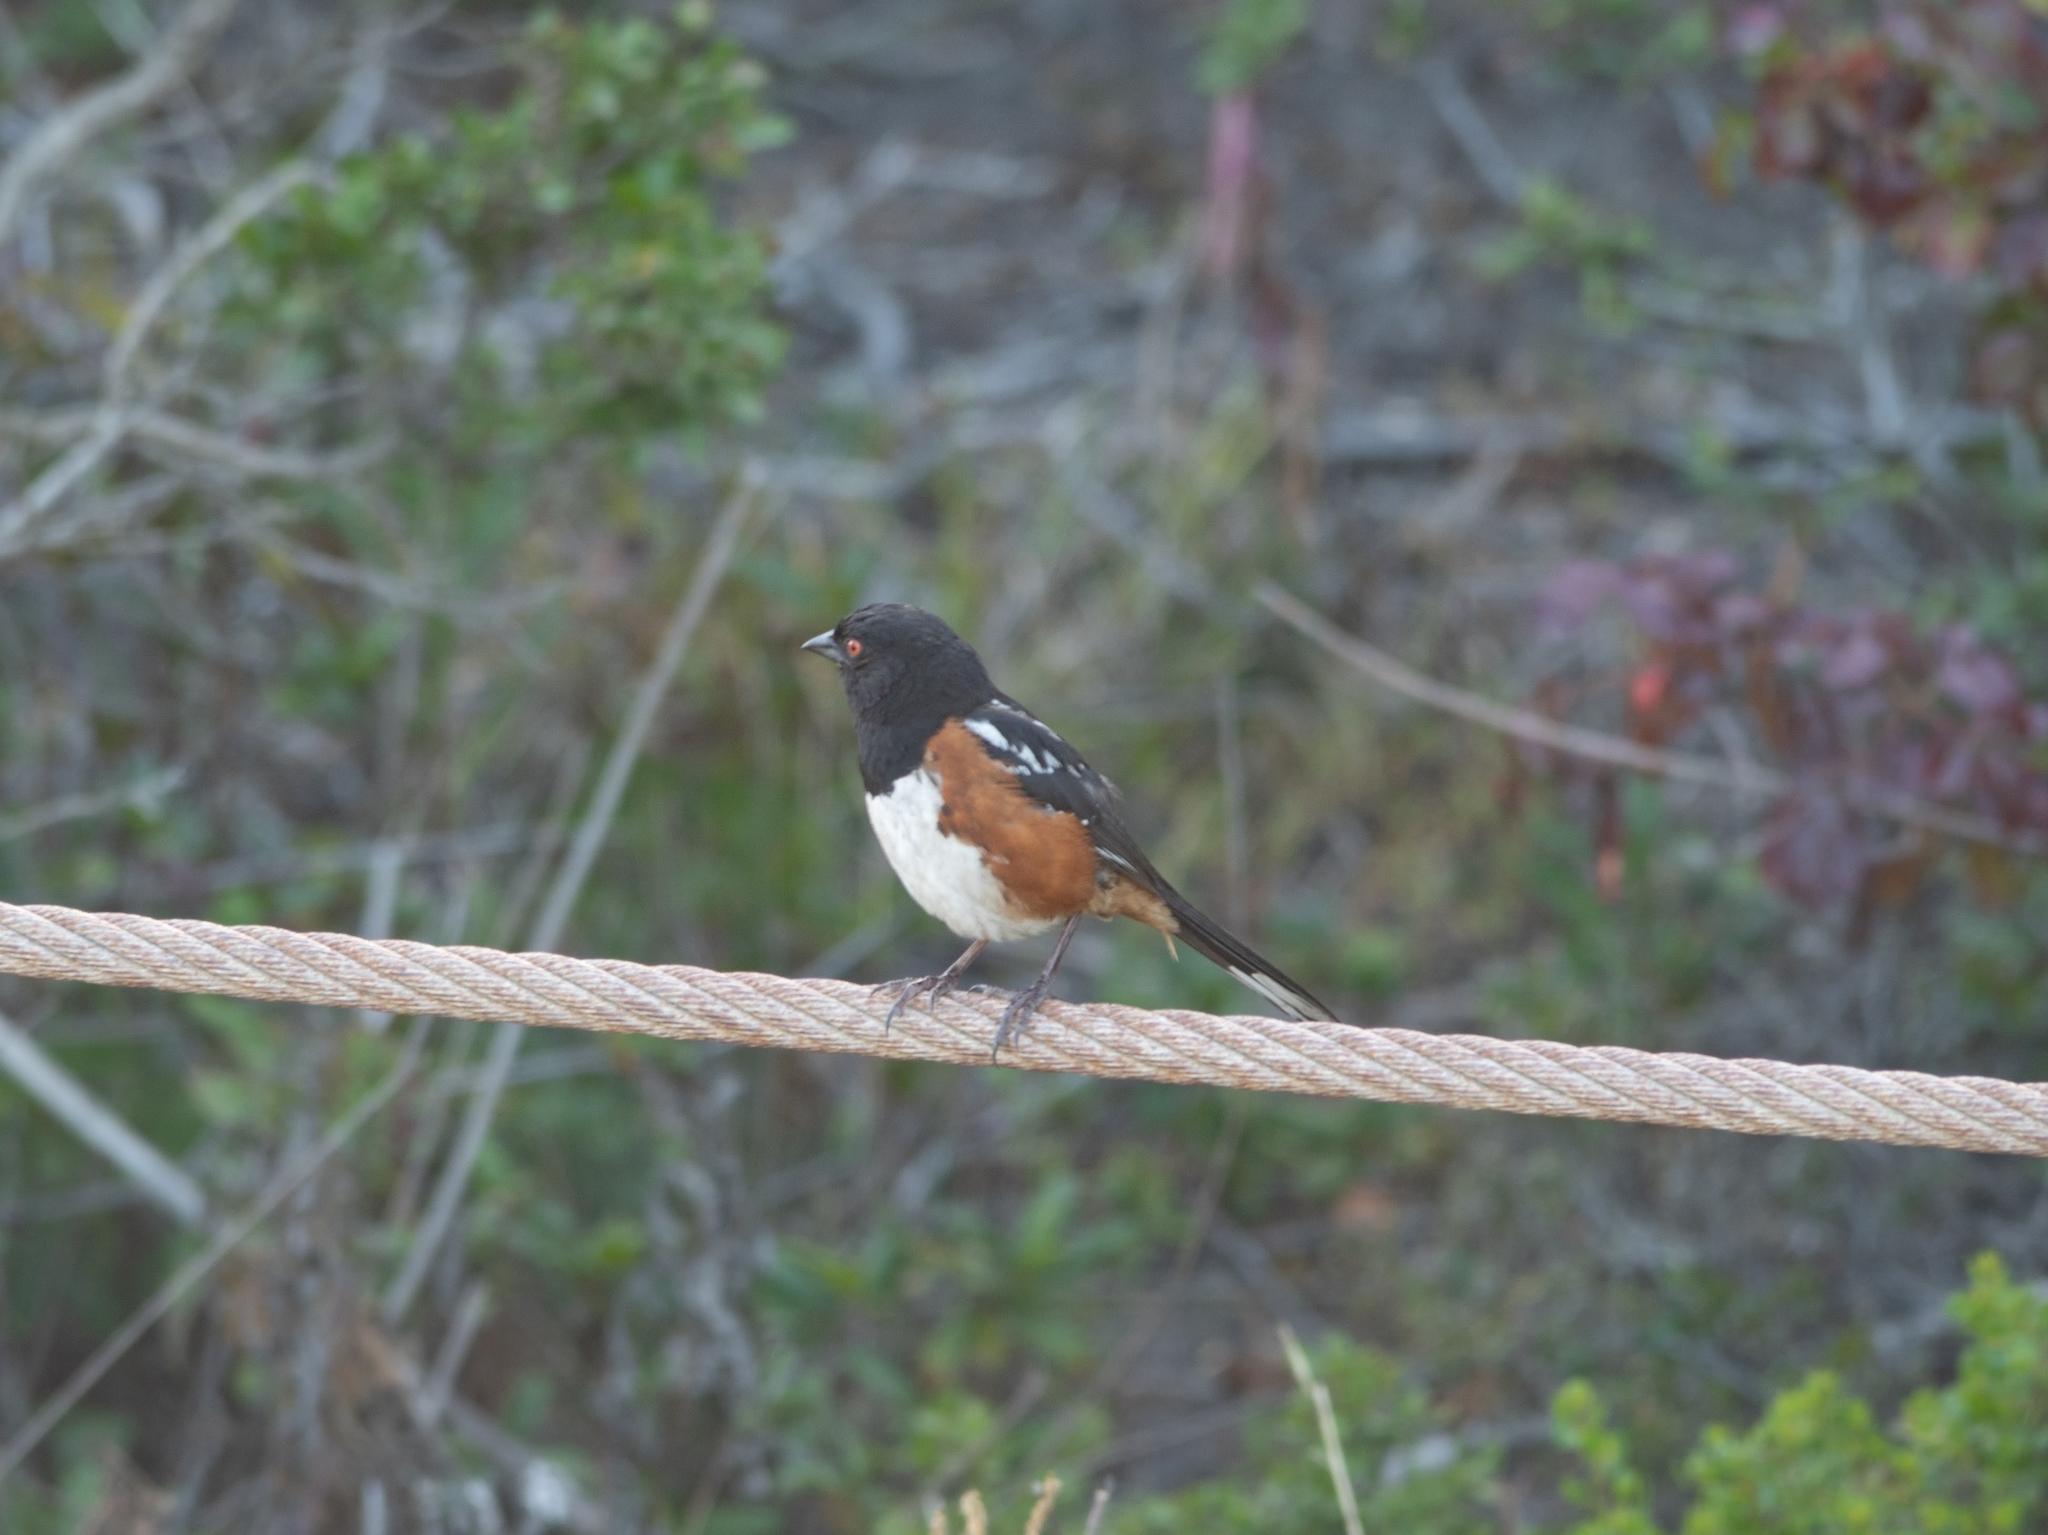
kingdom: Animalia
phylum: Chordata
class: Aves
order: Passeriformes
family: Passerellidae
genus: Pipilo
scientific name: Pipilo maculatus
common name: Spotted towhee
